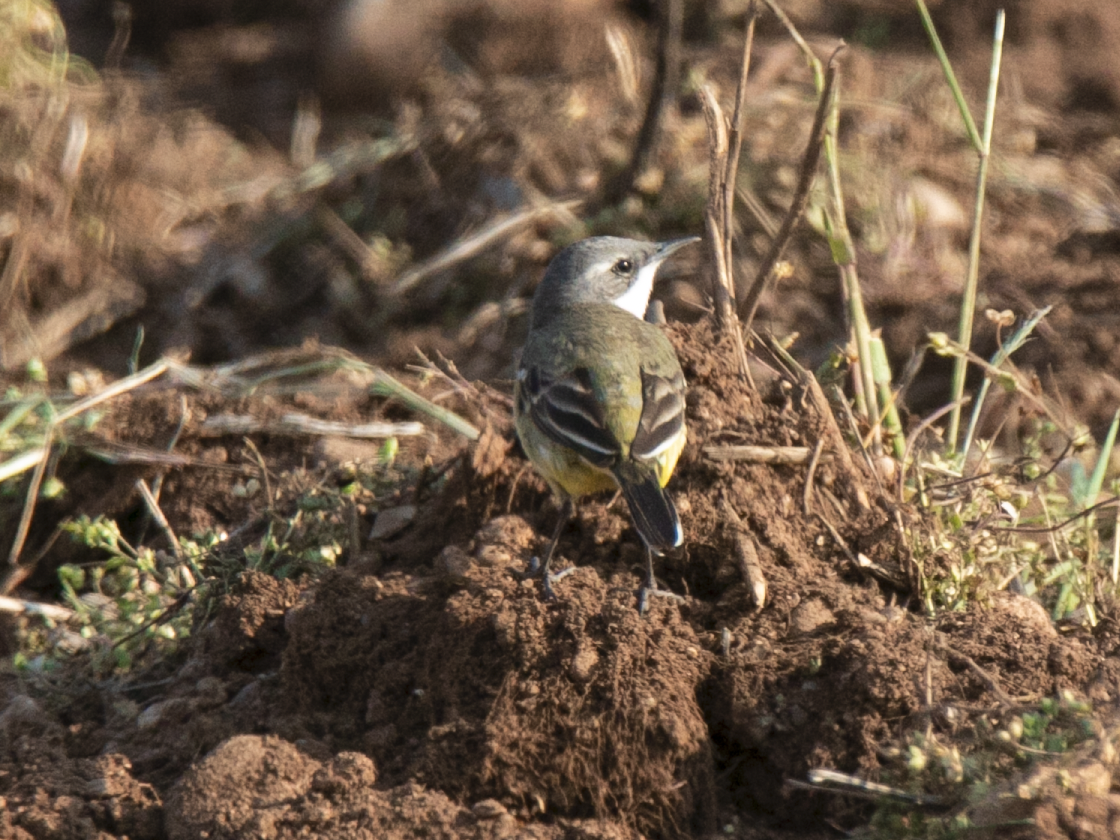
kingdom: Animalia
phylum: Chordata
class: Aves
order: Passeriformes
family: Motacillidae
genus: Motacilla
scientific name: Motacilla flava
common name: Western yellow wagtail
